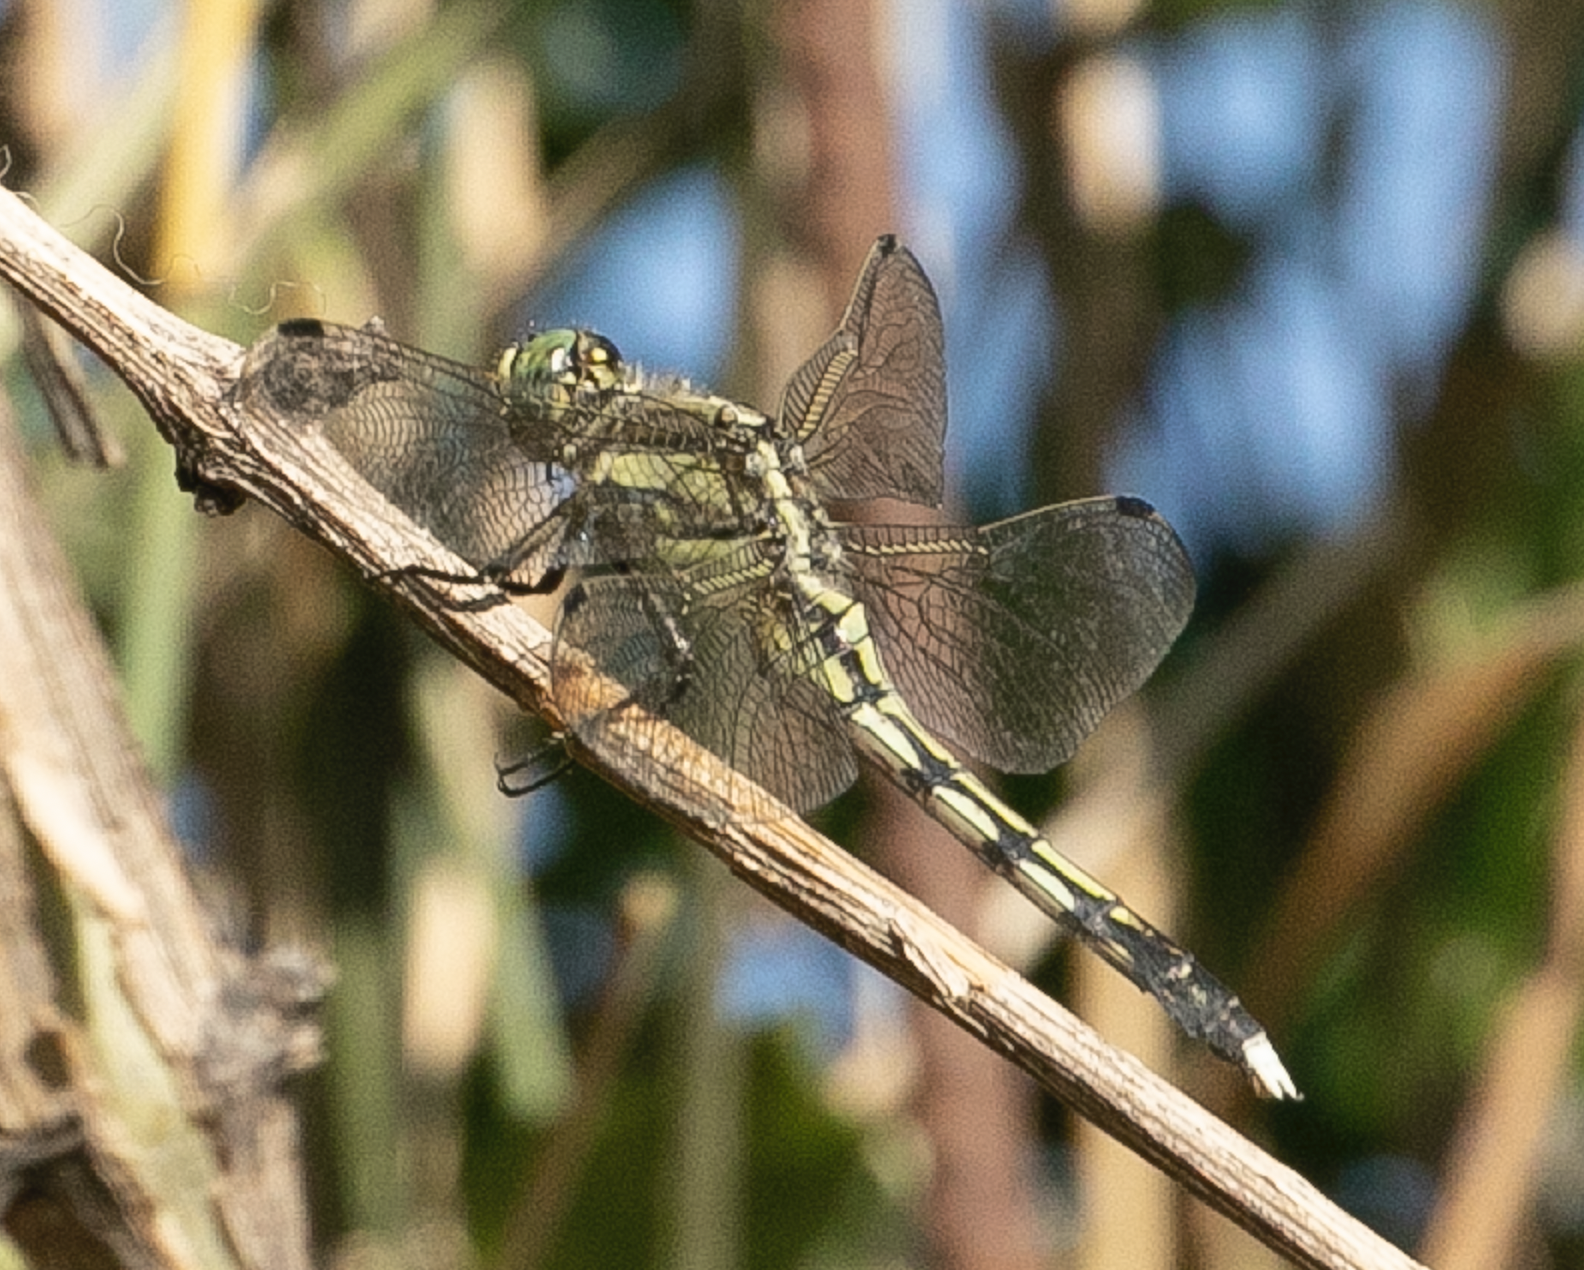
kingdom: Animalia
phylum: Arthropoda
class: Insecta
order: Odonata
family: Libellulidae
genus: Orthetrum
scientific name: Orthetrum albistylum
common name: White-tailed skimmer
